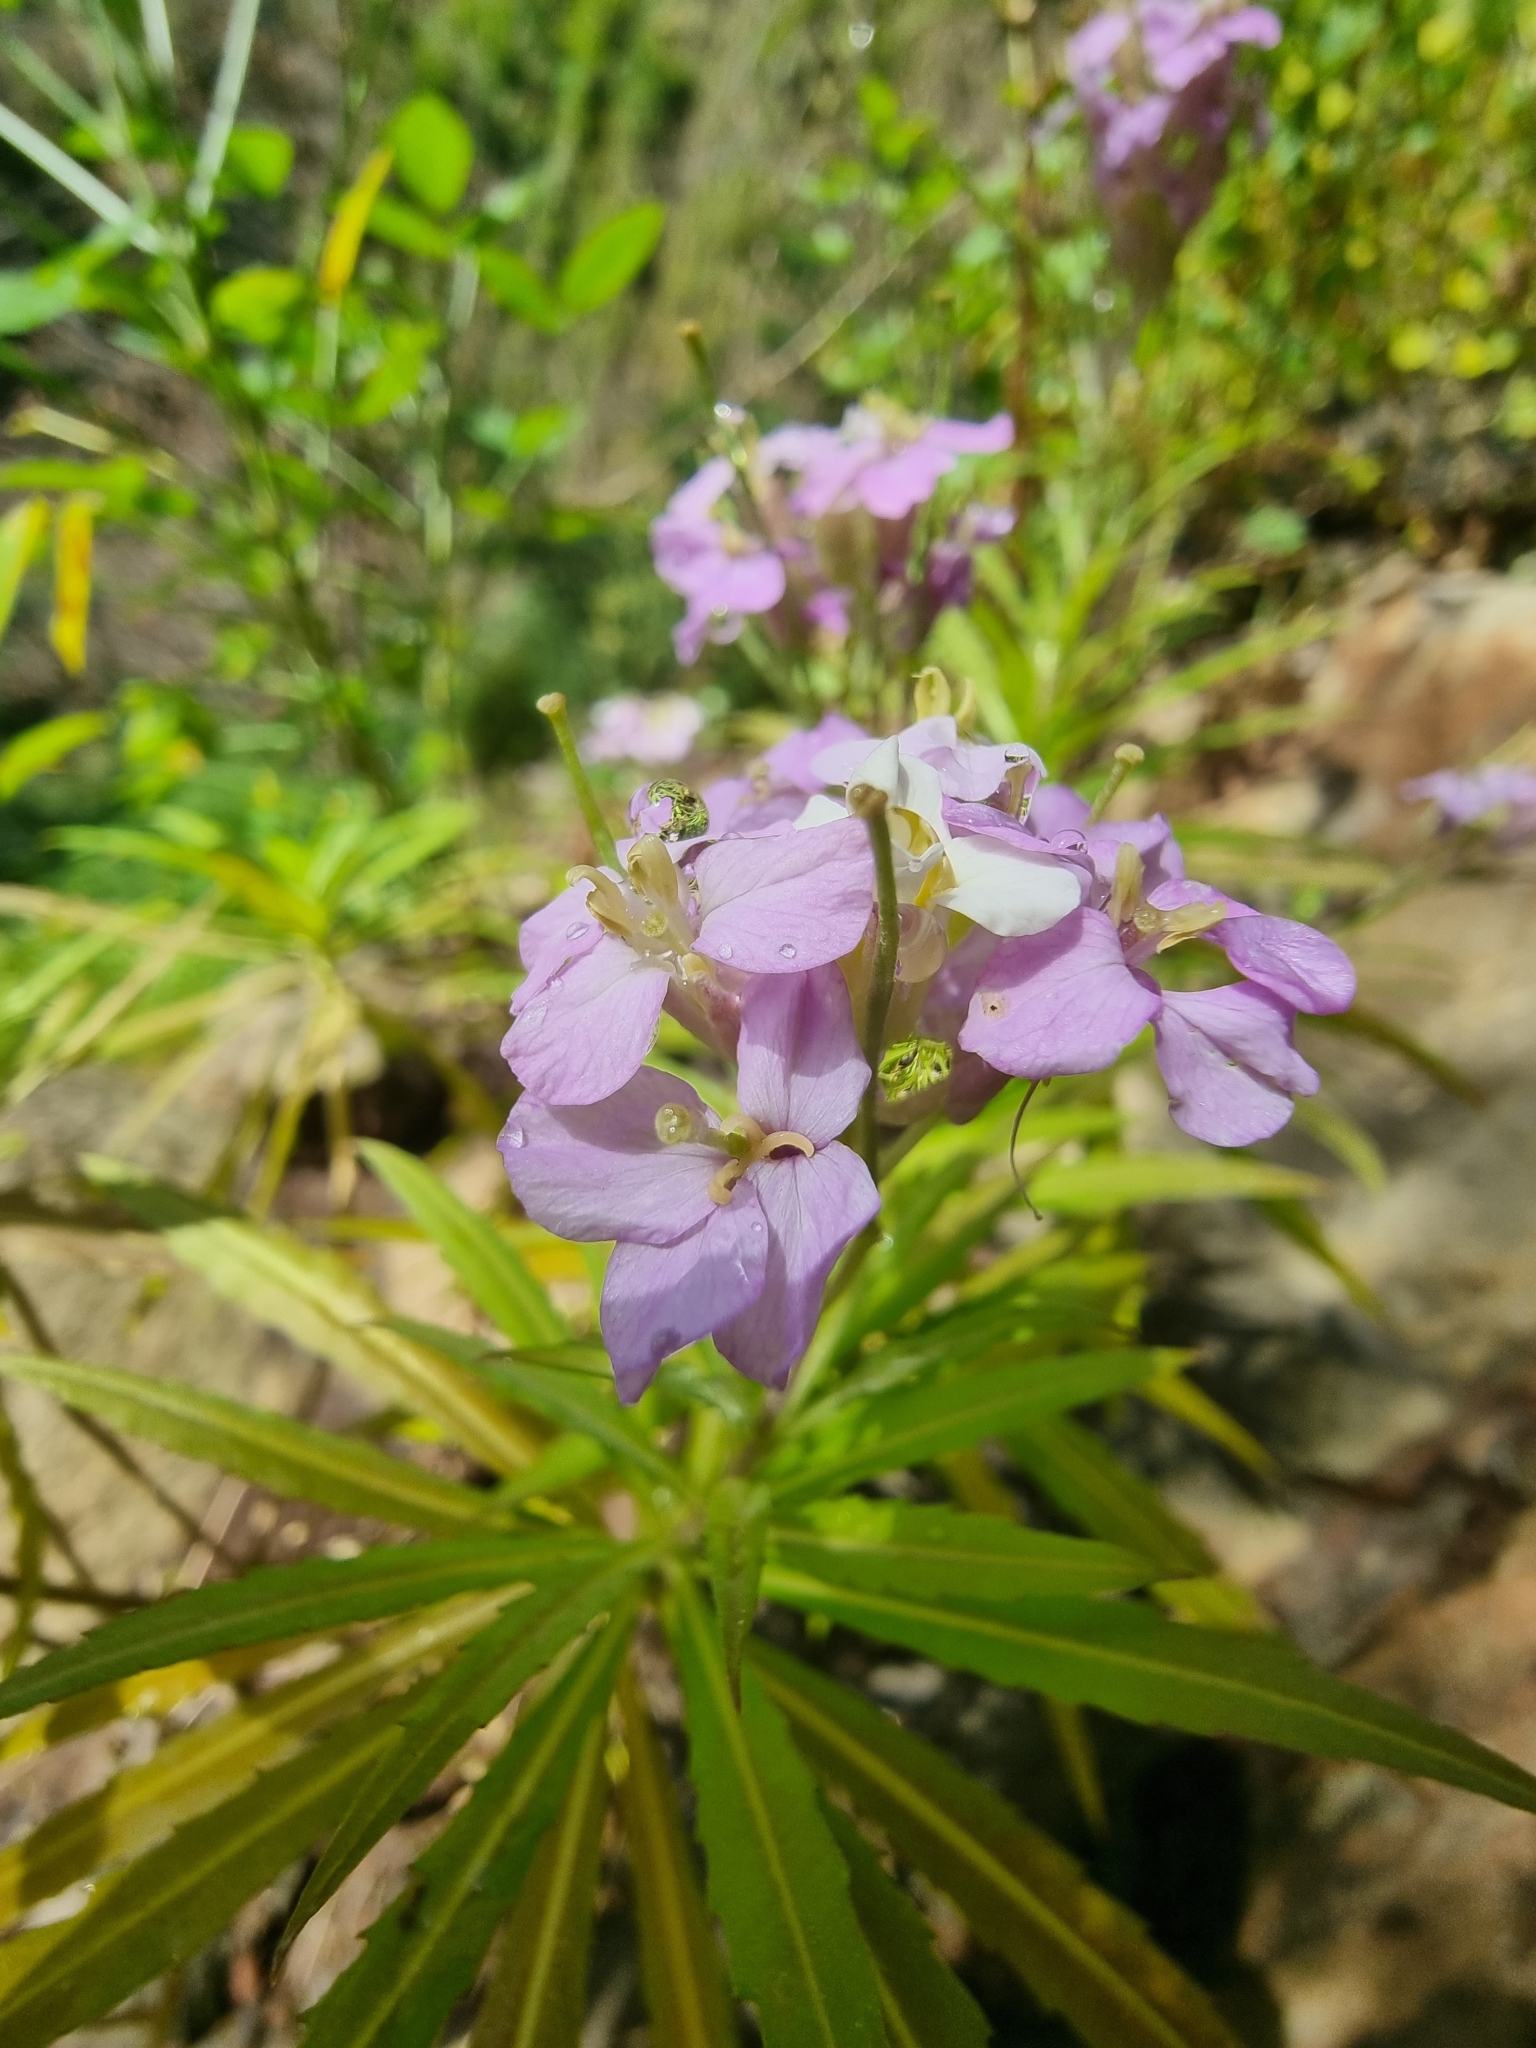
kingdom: Plantae
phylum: Tracheophyta
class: Magnoliopsida
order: Brassicales
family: Brassicaceae
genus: Erysimum
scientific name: Erysimum bicolor
